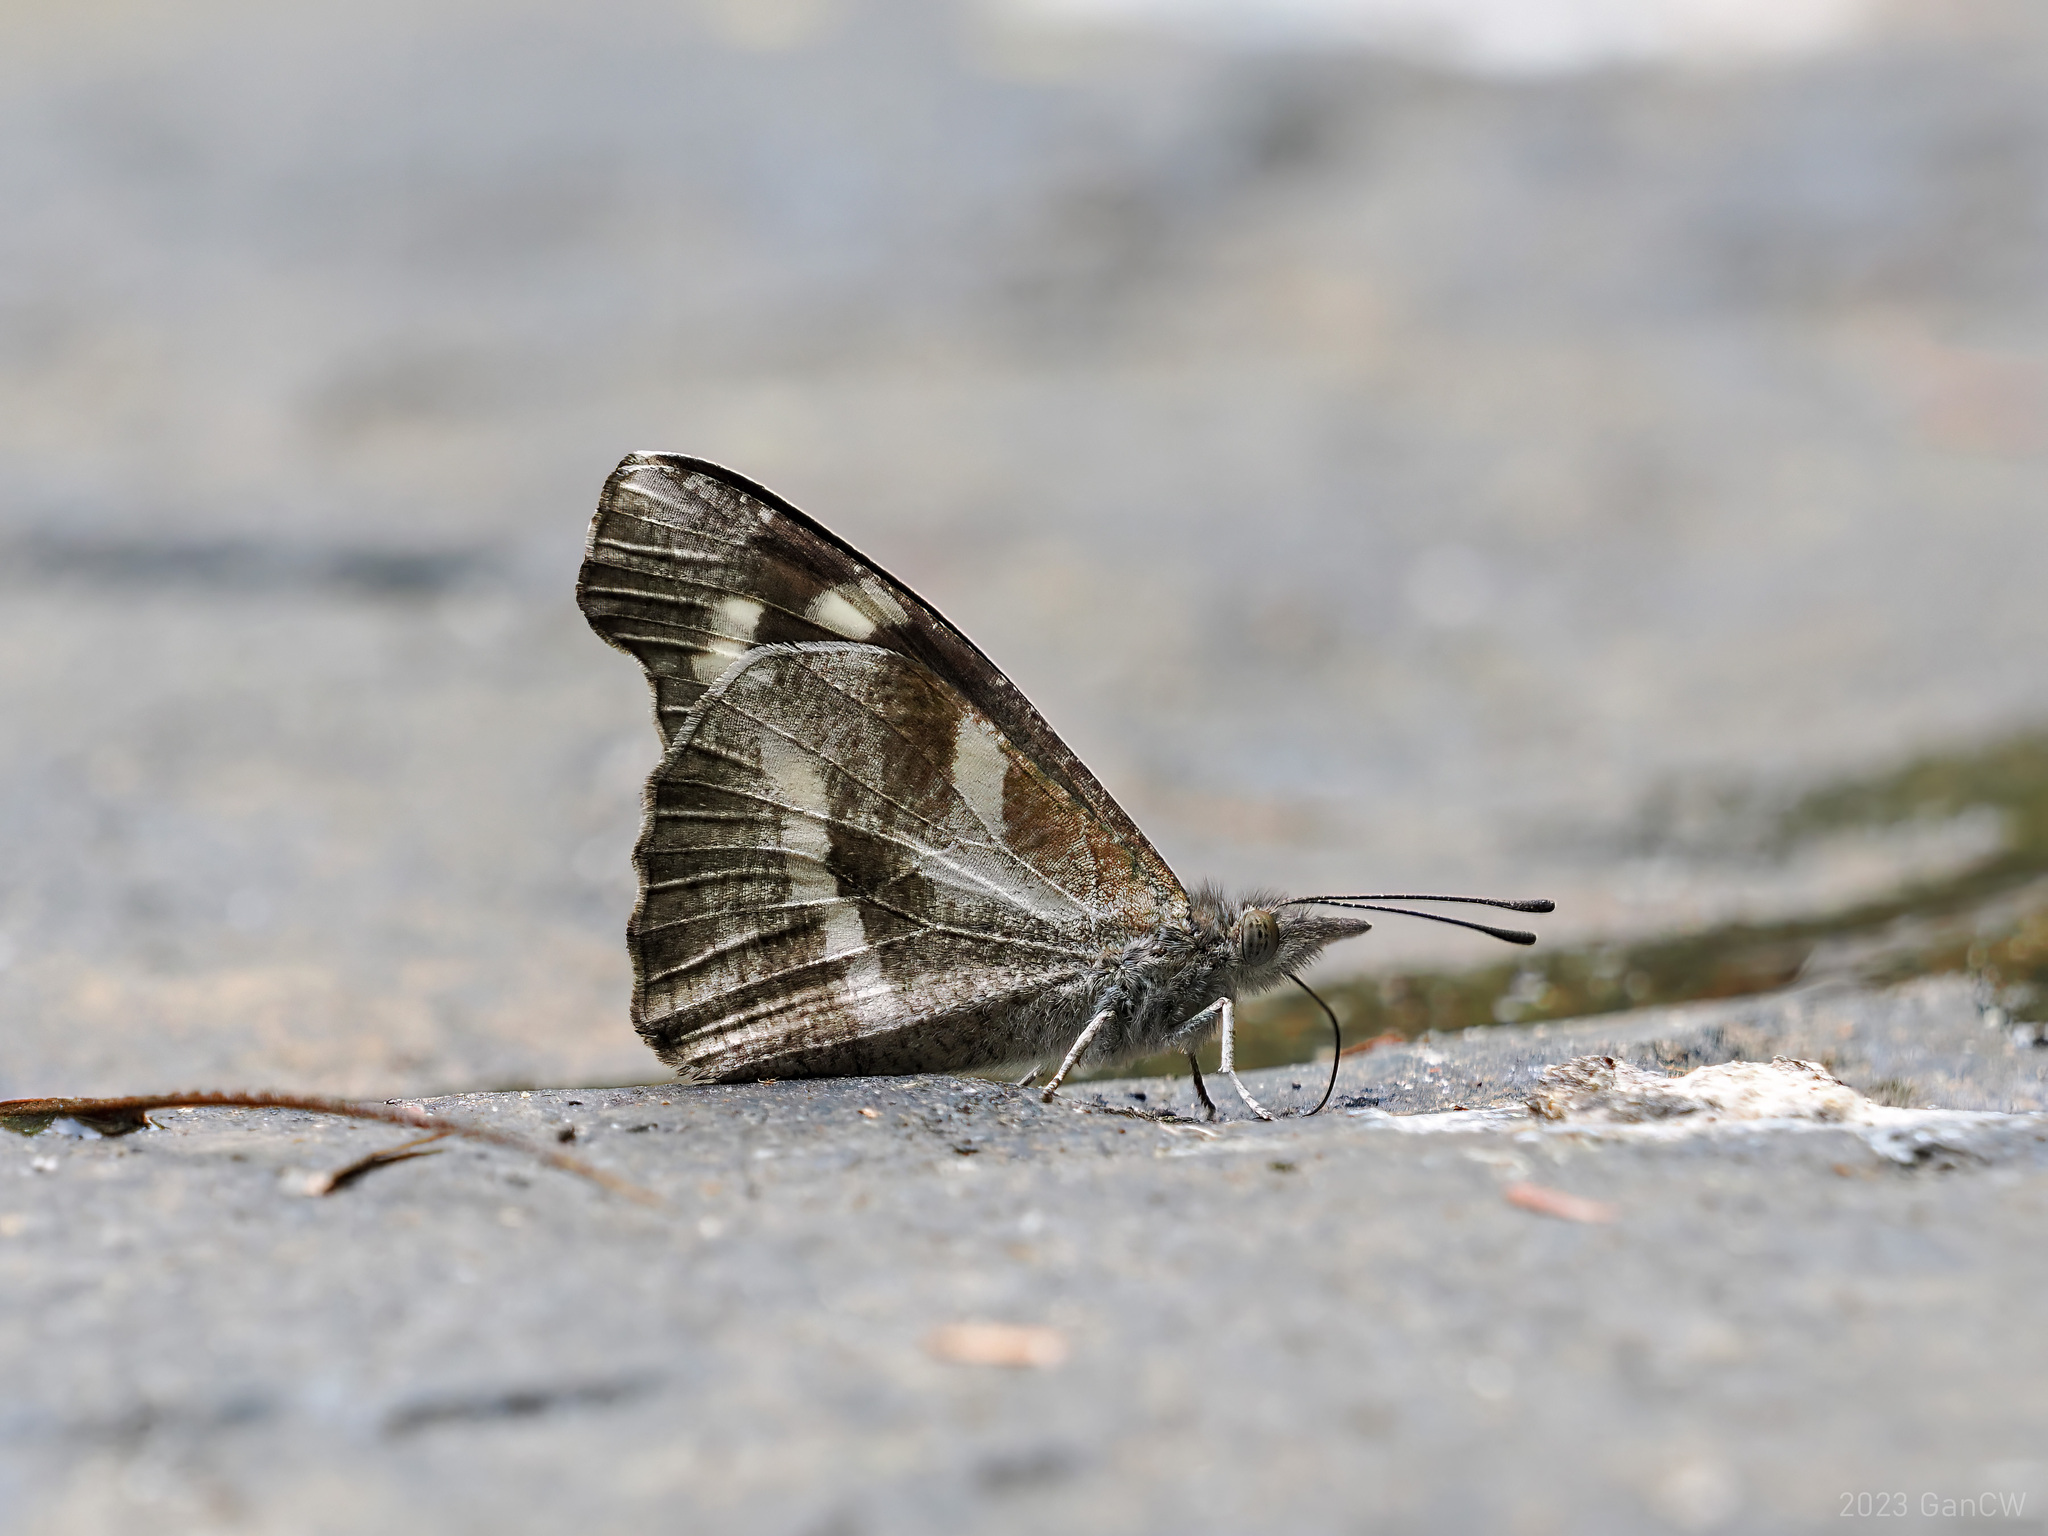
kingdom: Animalia
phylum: Arthropoda
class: Insecta
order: Lepidoptera
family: Nymphalidae
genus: Libythea
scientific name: Libythea narina
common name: Whitespotted beak
